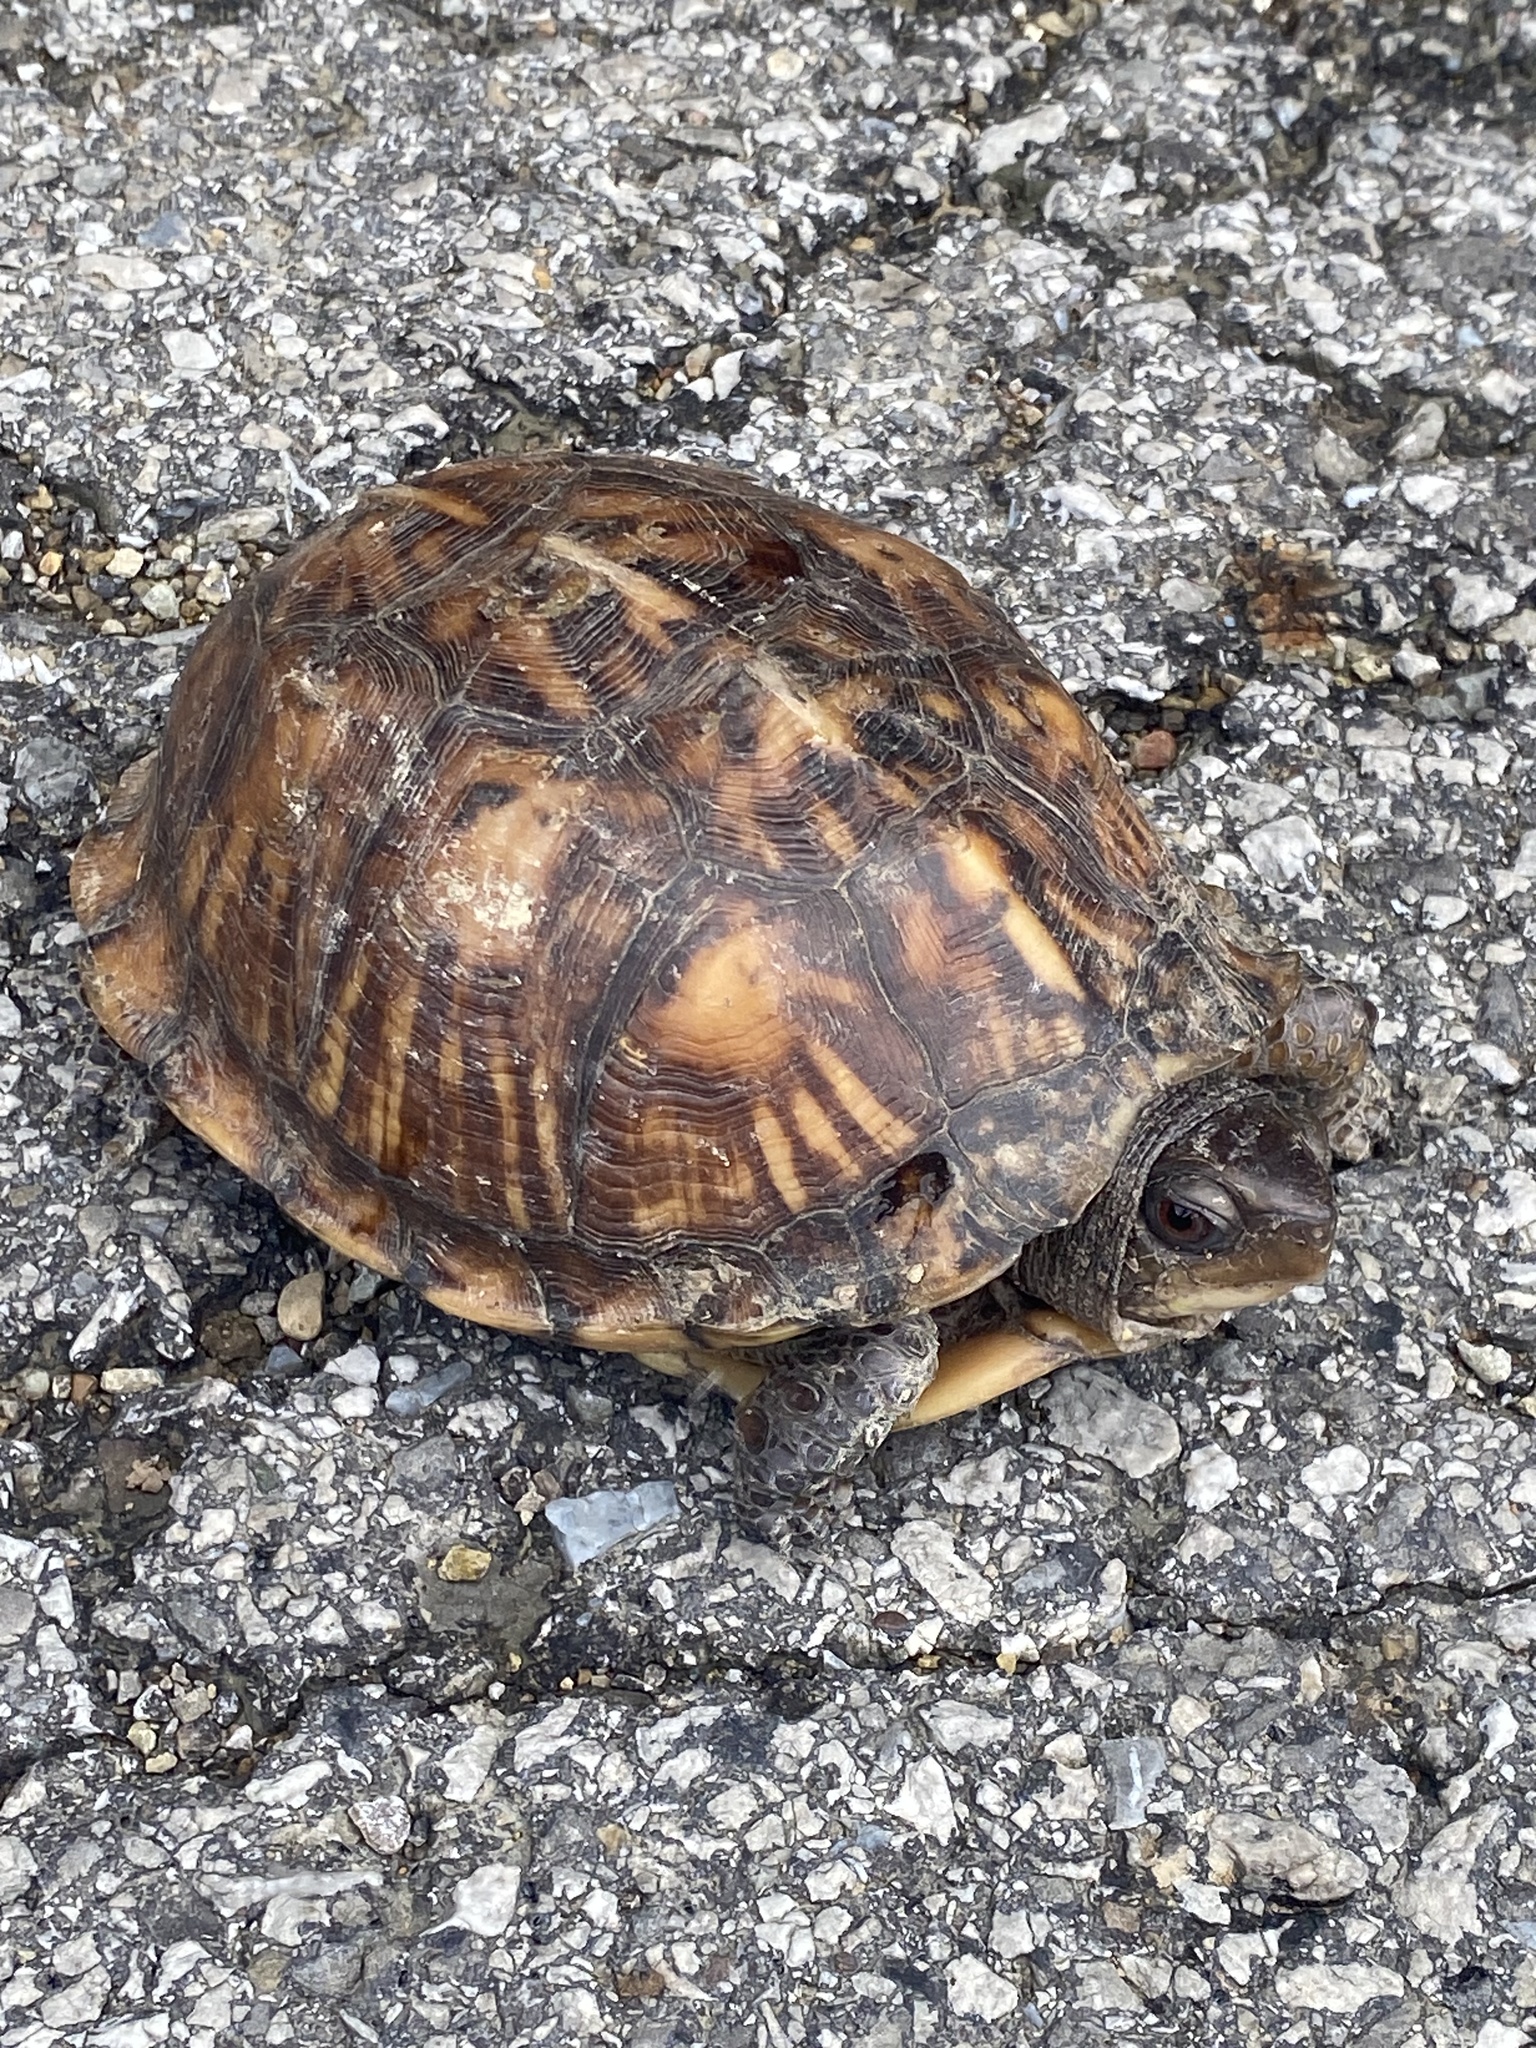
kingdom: Animalia
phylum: Chordata
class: Testudines
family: Emydidae
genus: Terrapene
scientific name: Terrapene carolina
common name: Common box turtle
